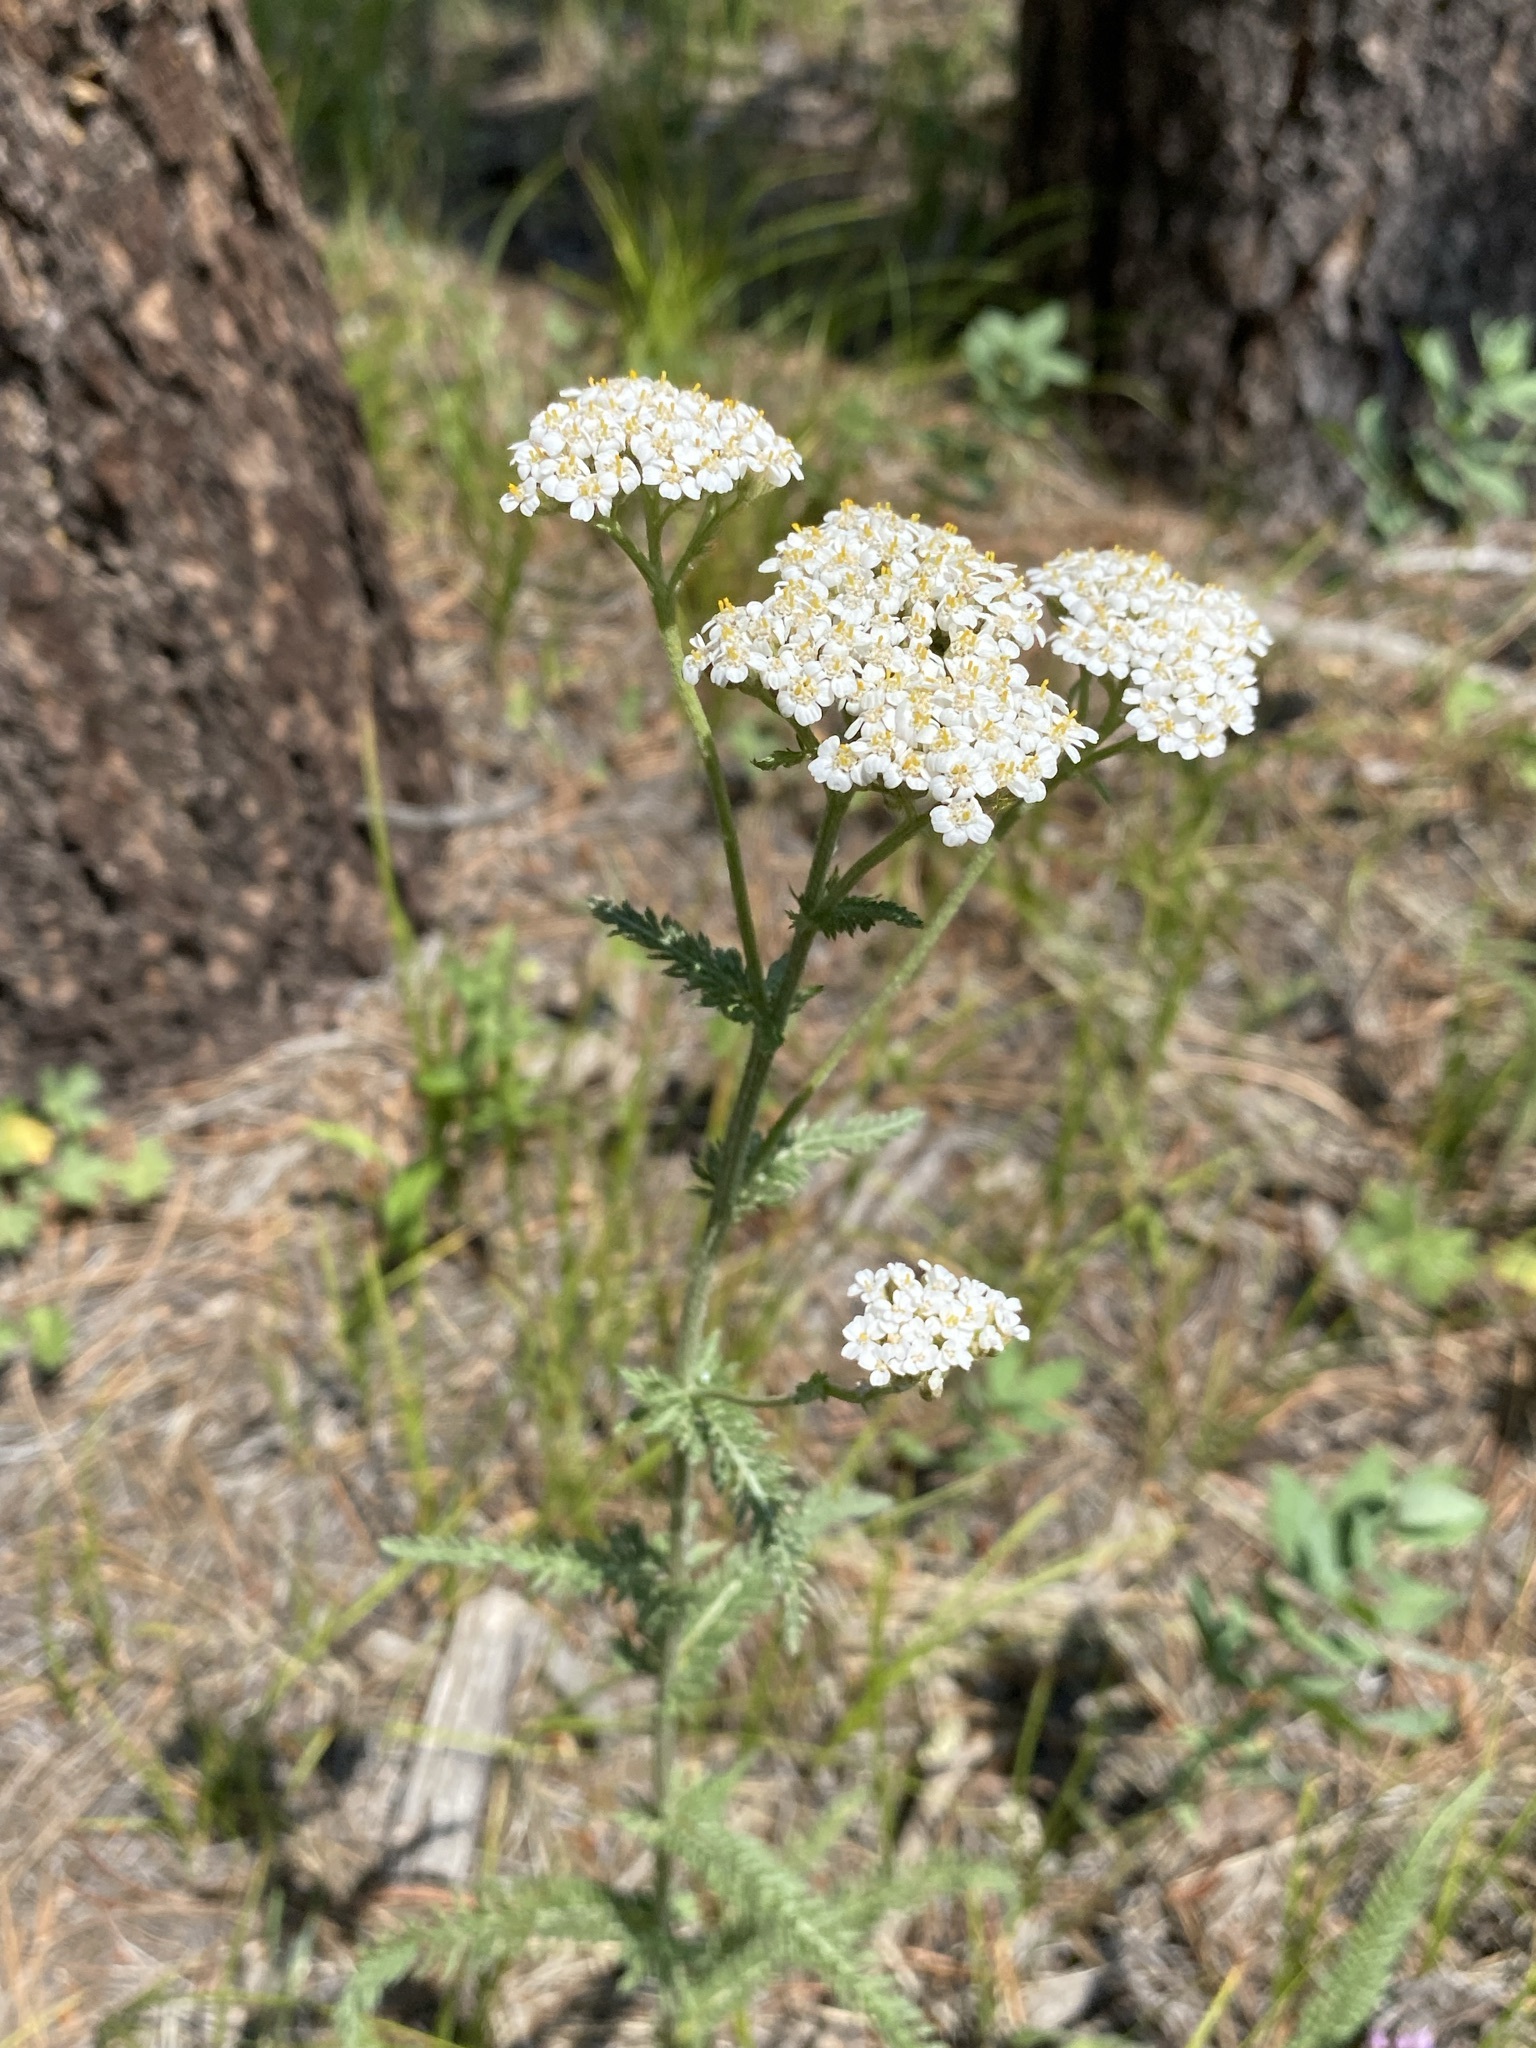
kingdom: Plantae
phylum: Tracheophyta
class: Magnoliopsida
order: Asterales
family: Asteraceae
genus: Achillea
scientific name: Achillea millefolium
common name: Yarrow
